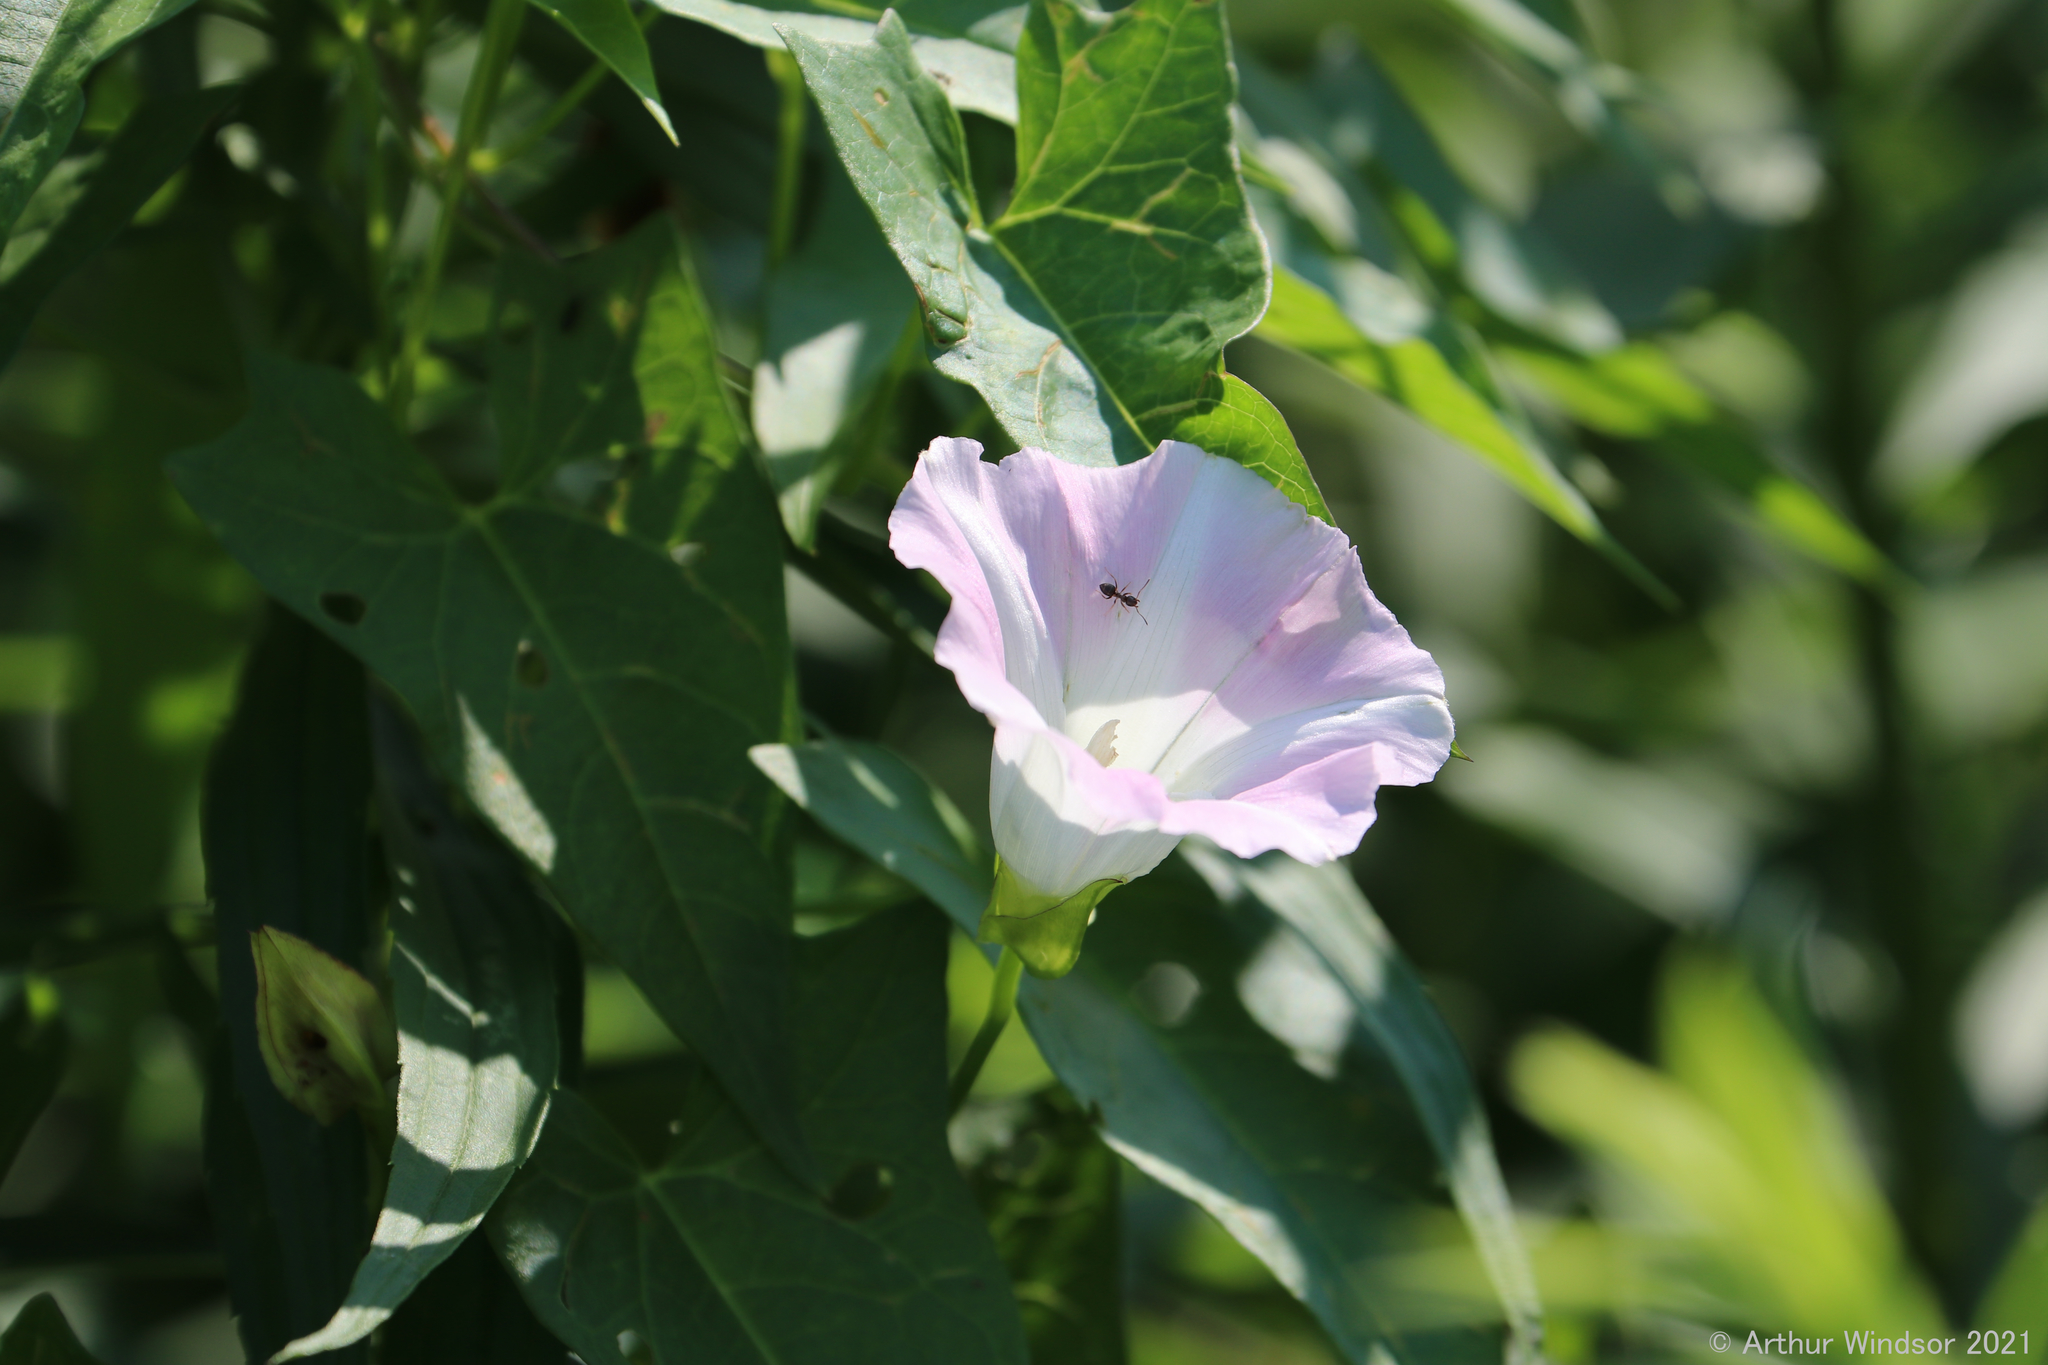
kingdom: Animalia
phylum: Arthropoda
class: Insecta
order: Hymenoptera
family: Formicidae
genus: Lasius
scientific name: Lasius
